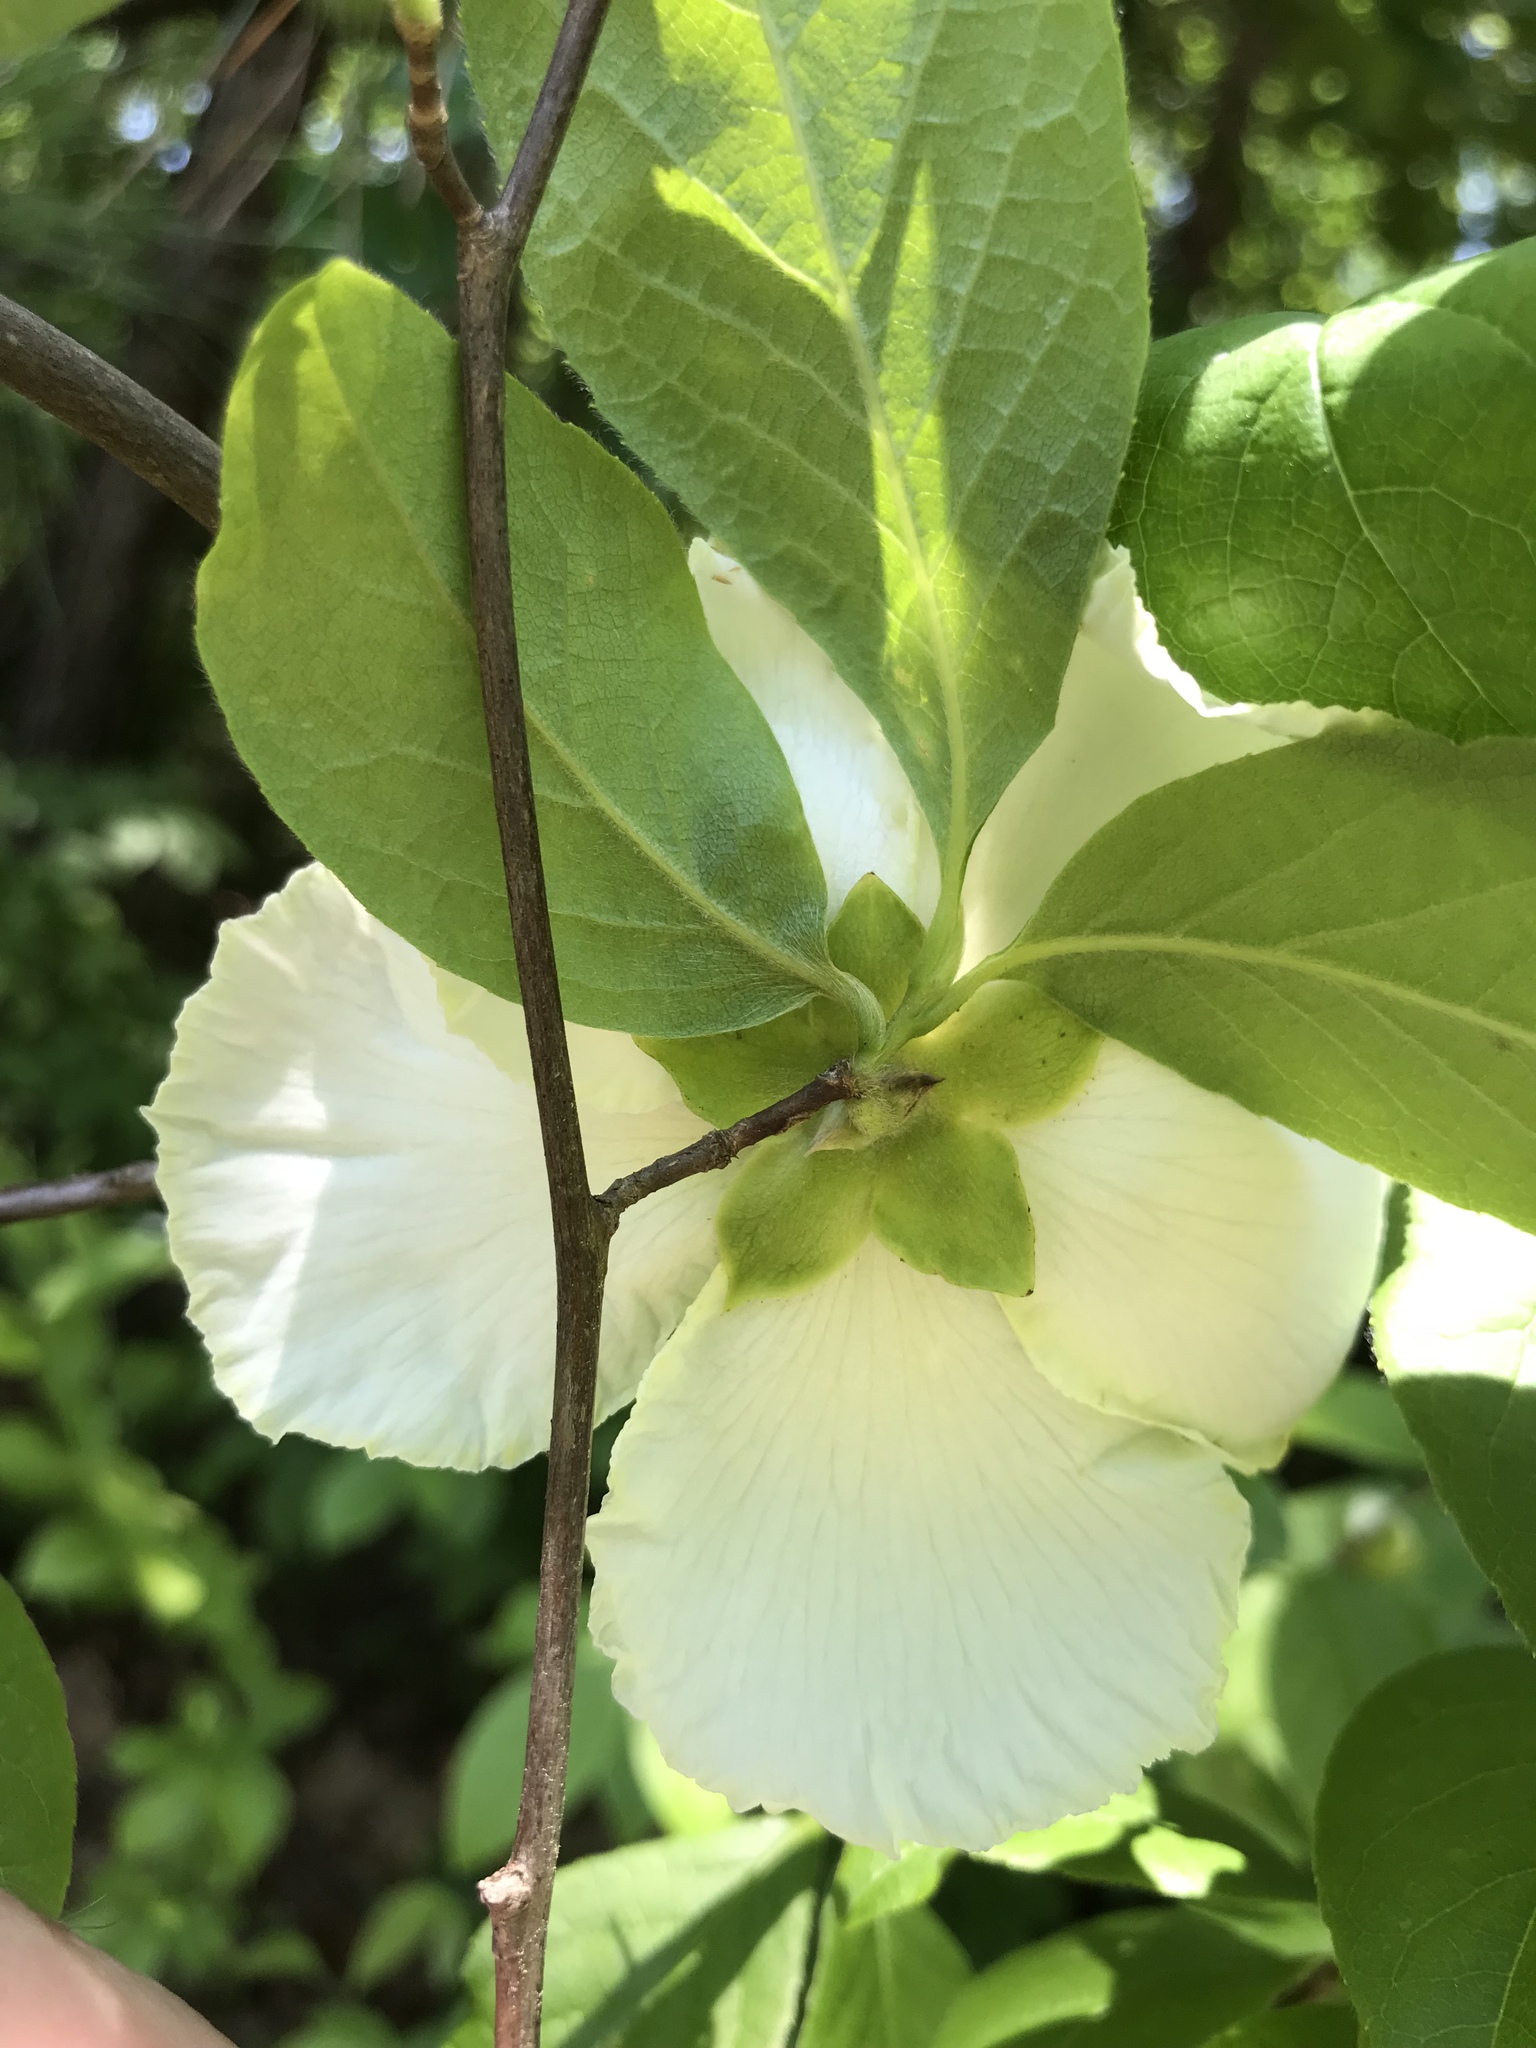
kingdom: Plantae
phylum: Tracheophyta
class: Magnoliopsida
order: Ericales
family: Theaceae
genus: Stewartia
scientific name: Stewartia malacodendron
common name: Virginia stewartia
